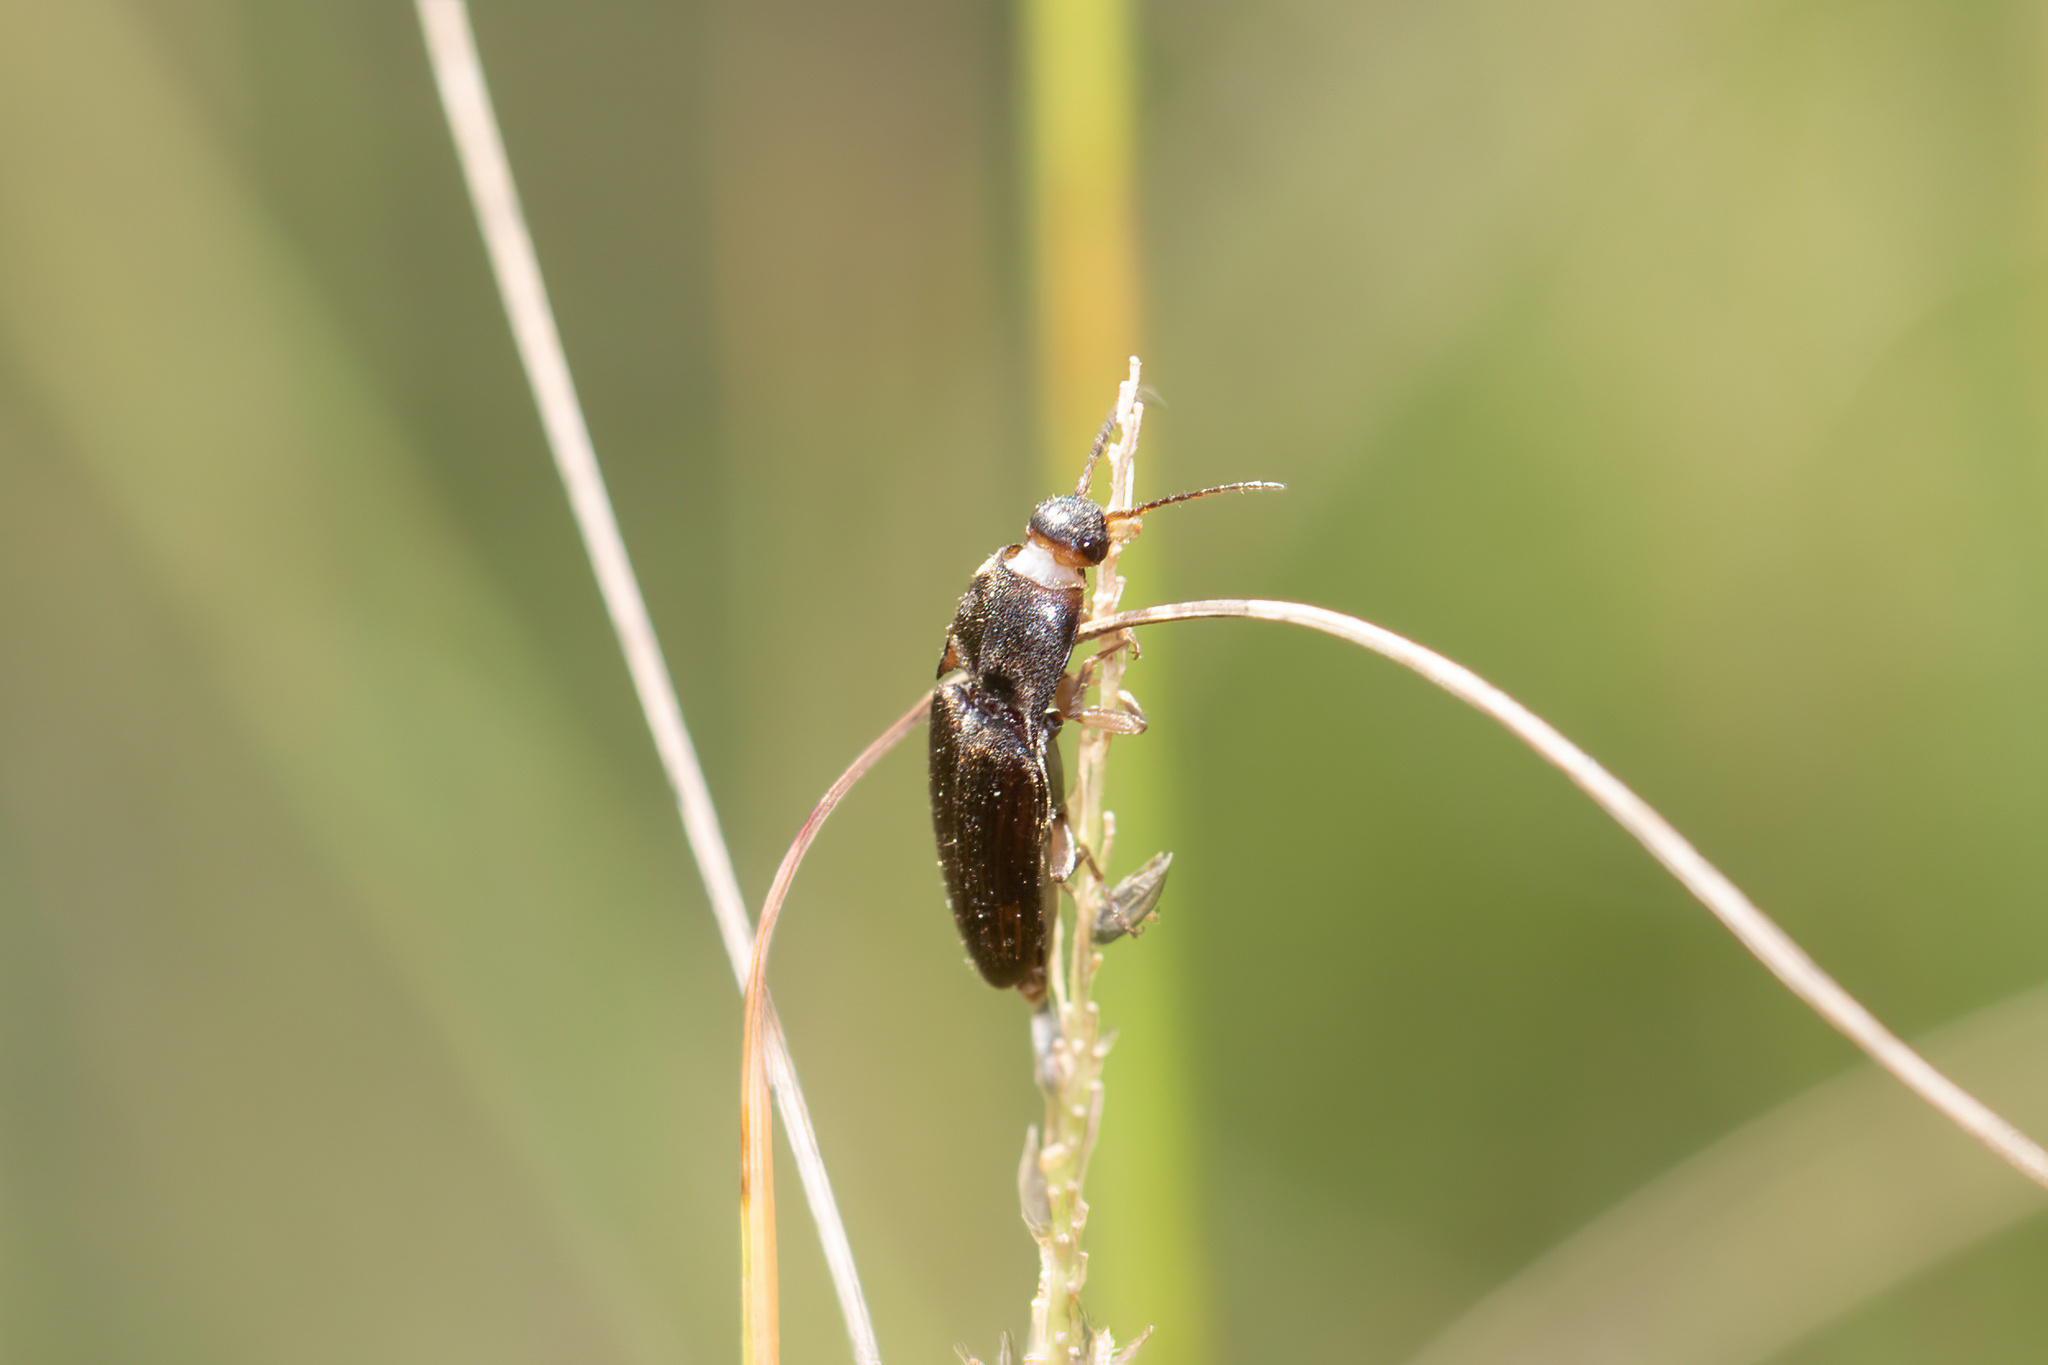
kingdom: Animalia
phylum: Arthropoda
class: Insecta
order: Coleoptera
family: Elateridae
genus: Monocrepidius
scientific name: Monocrepidius
